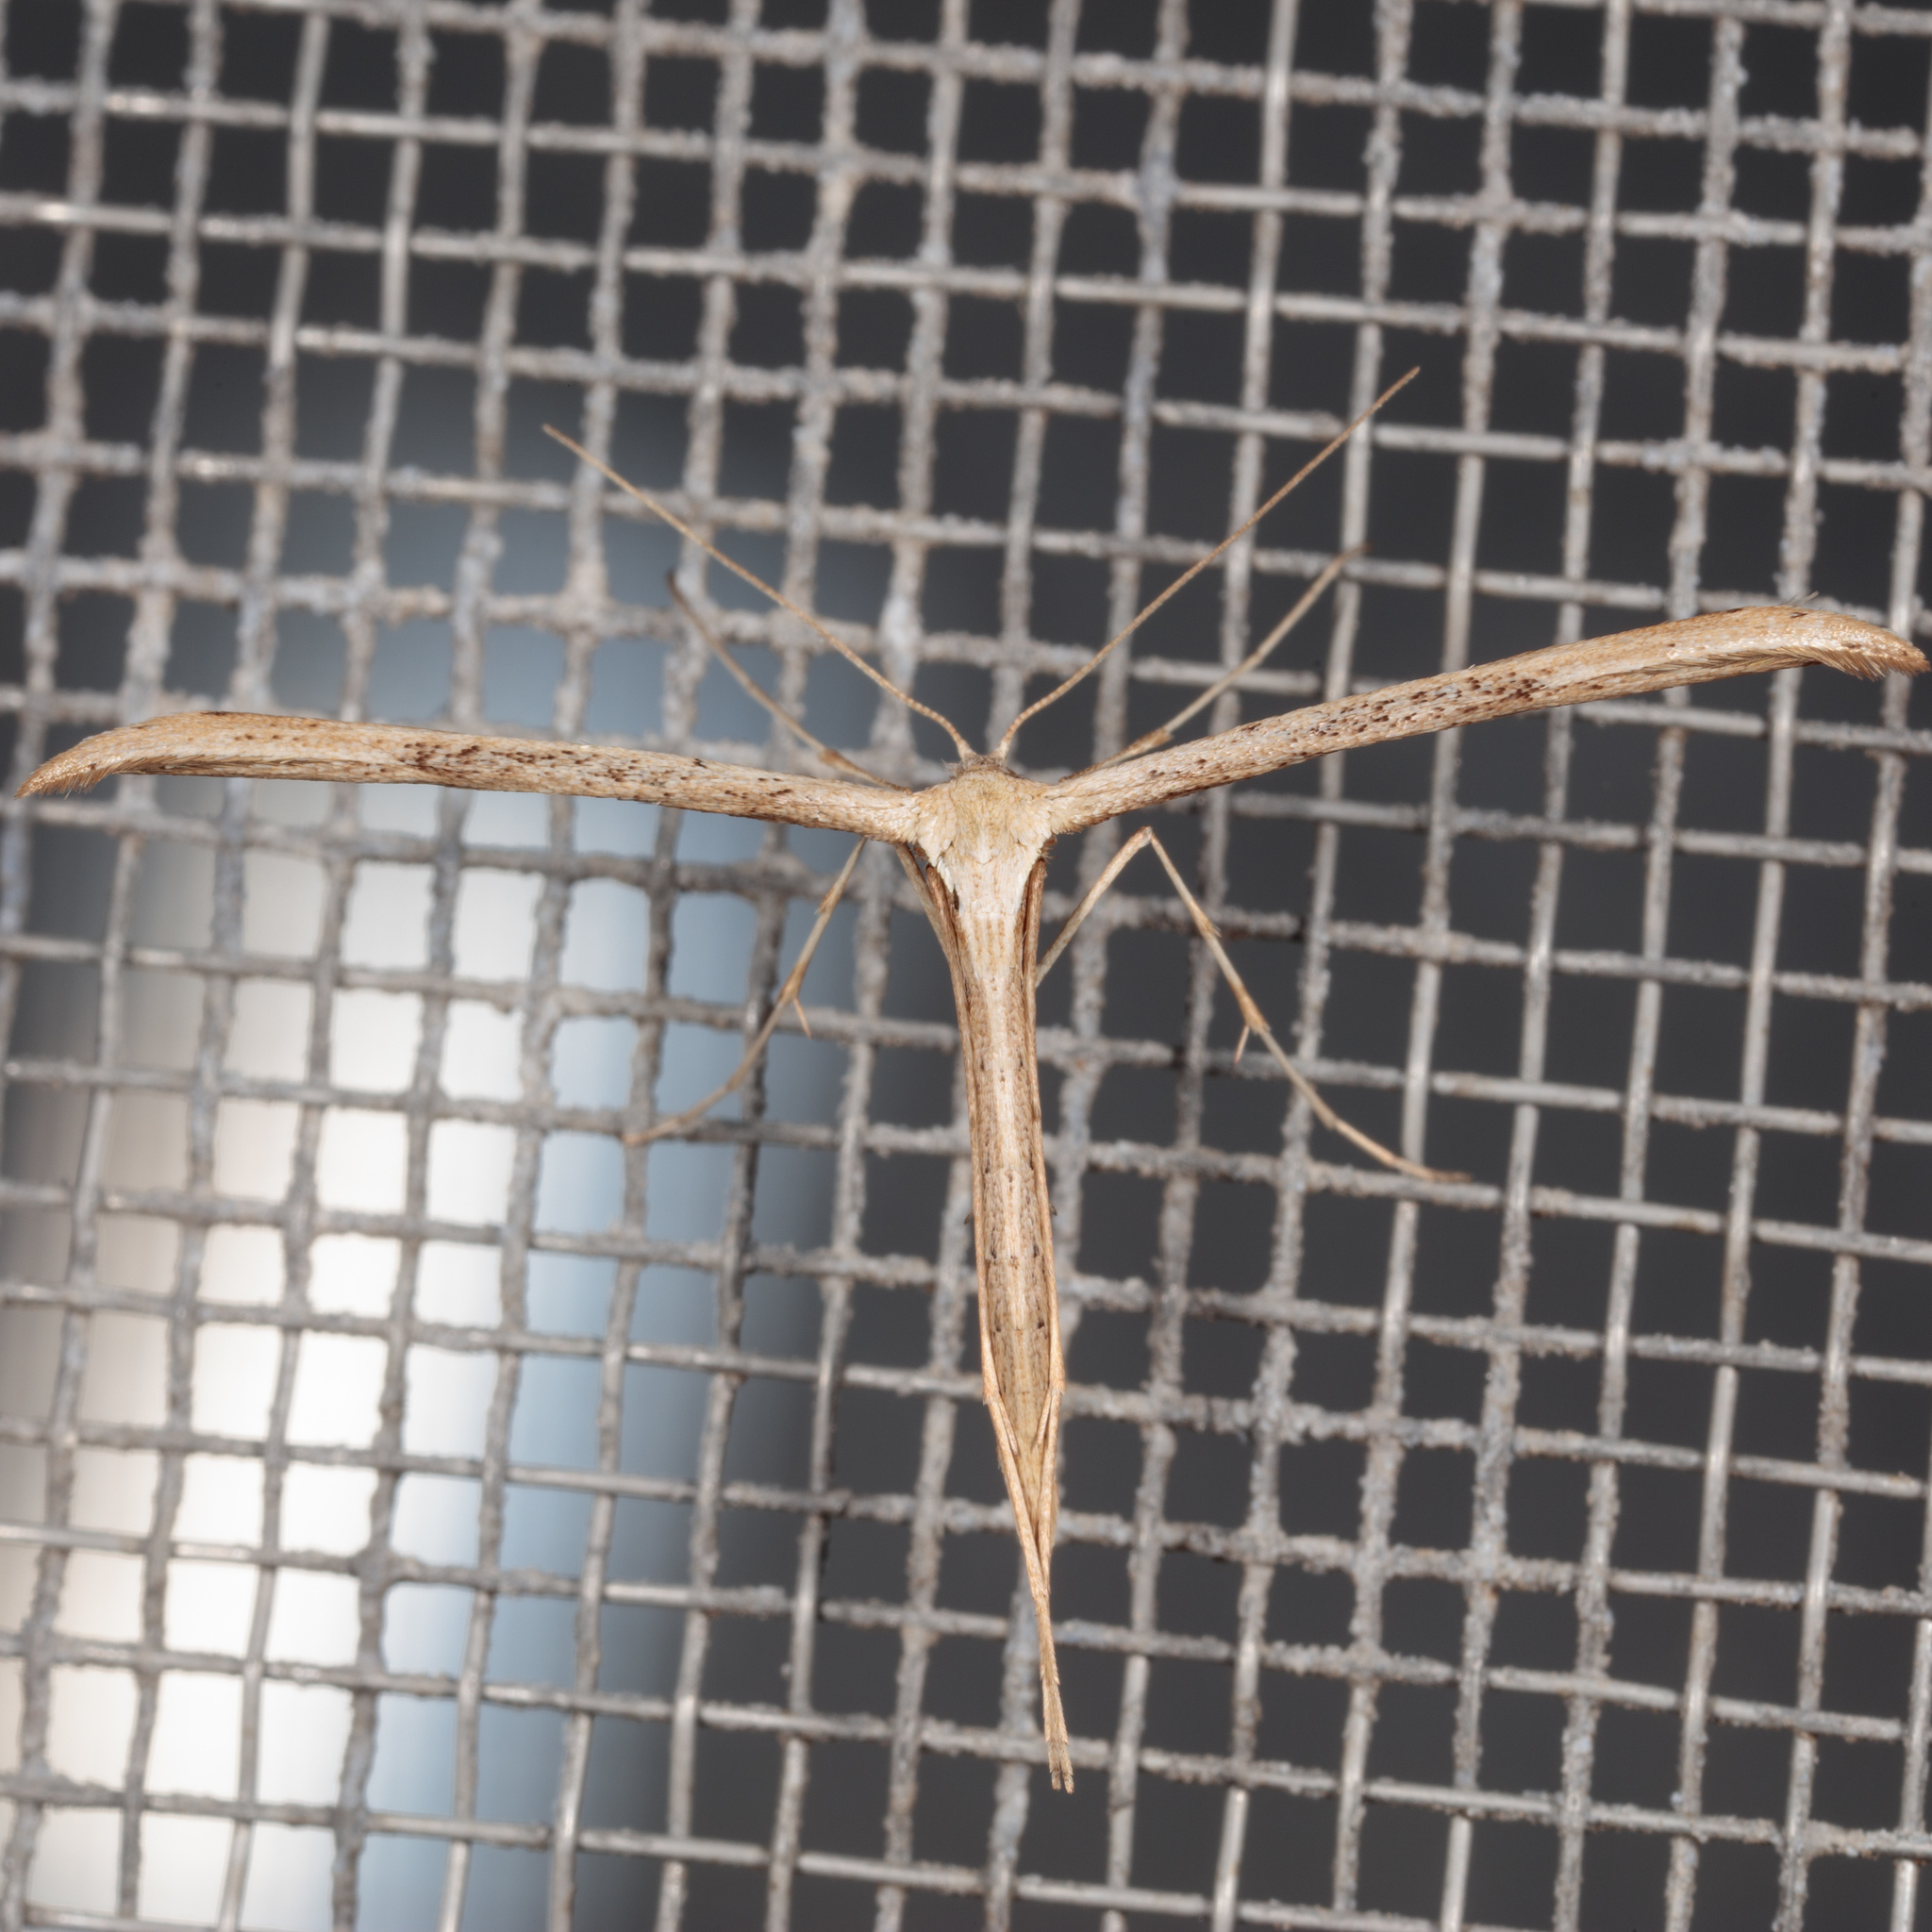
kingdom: Animalia
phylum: Arthropoda
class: Insecta
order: Lepidoptera
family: Pterophoridae
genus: Emmelina
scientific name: Emmelina monodactyla
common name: Common plume
